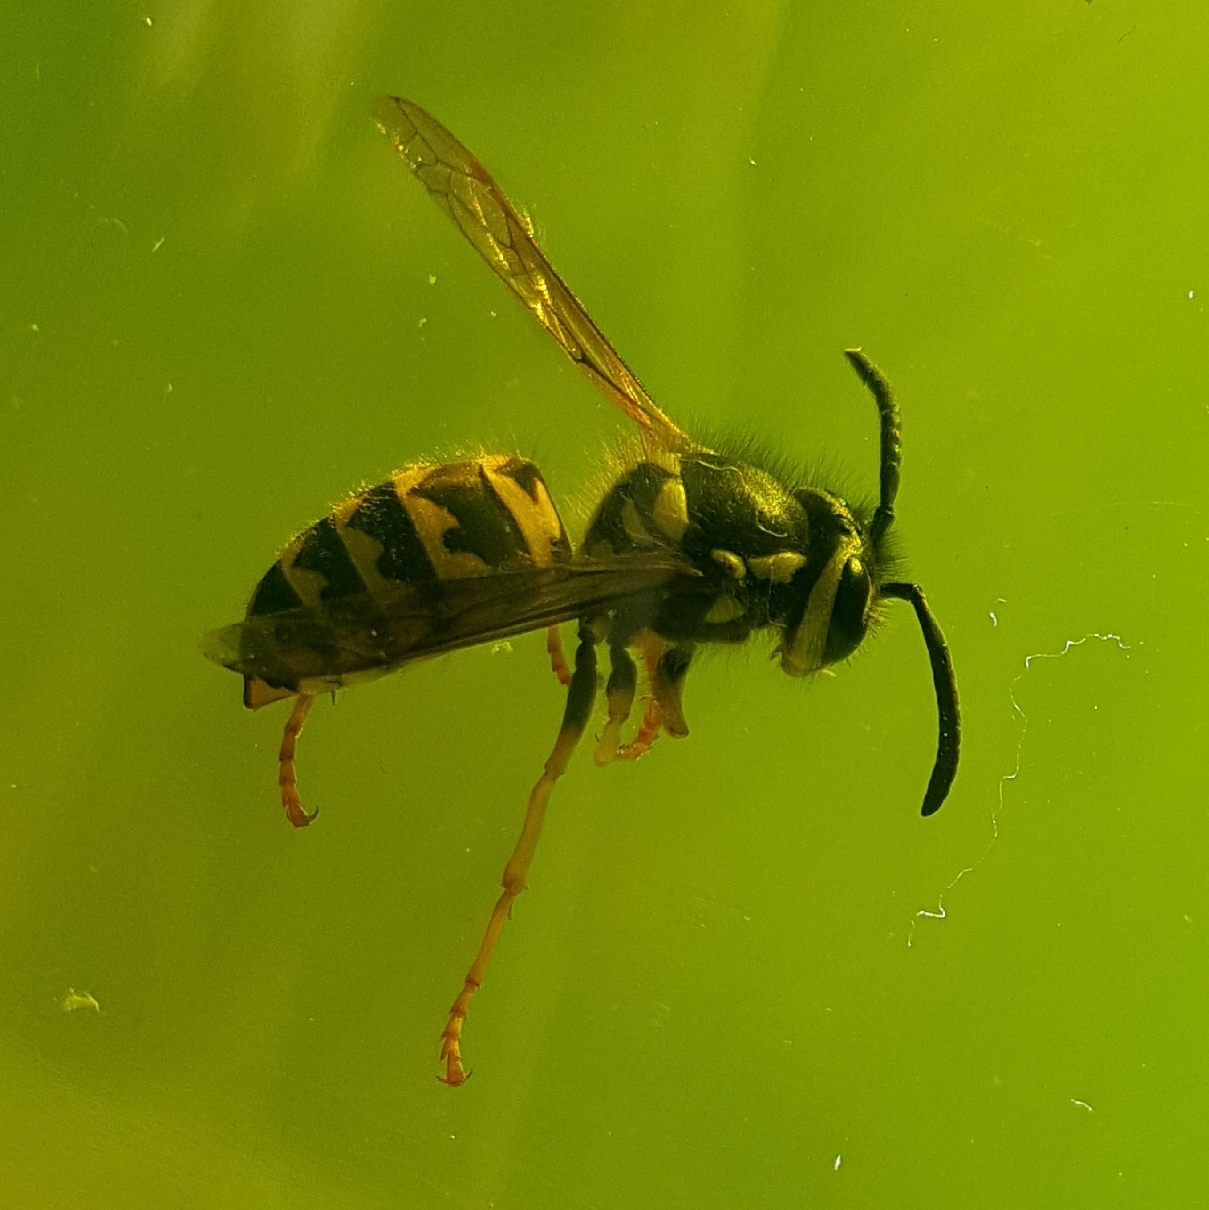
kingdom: Animalia
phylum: Arthropoda
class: Insecta
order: Hymenoptera
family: Vespidae
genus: Vespula
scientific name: Vespula pensylvanica
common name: Western yellowjacket
